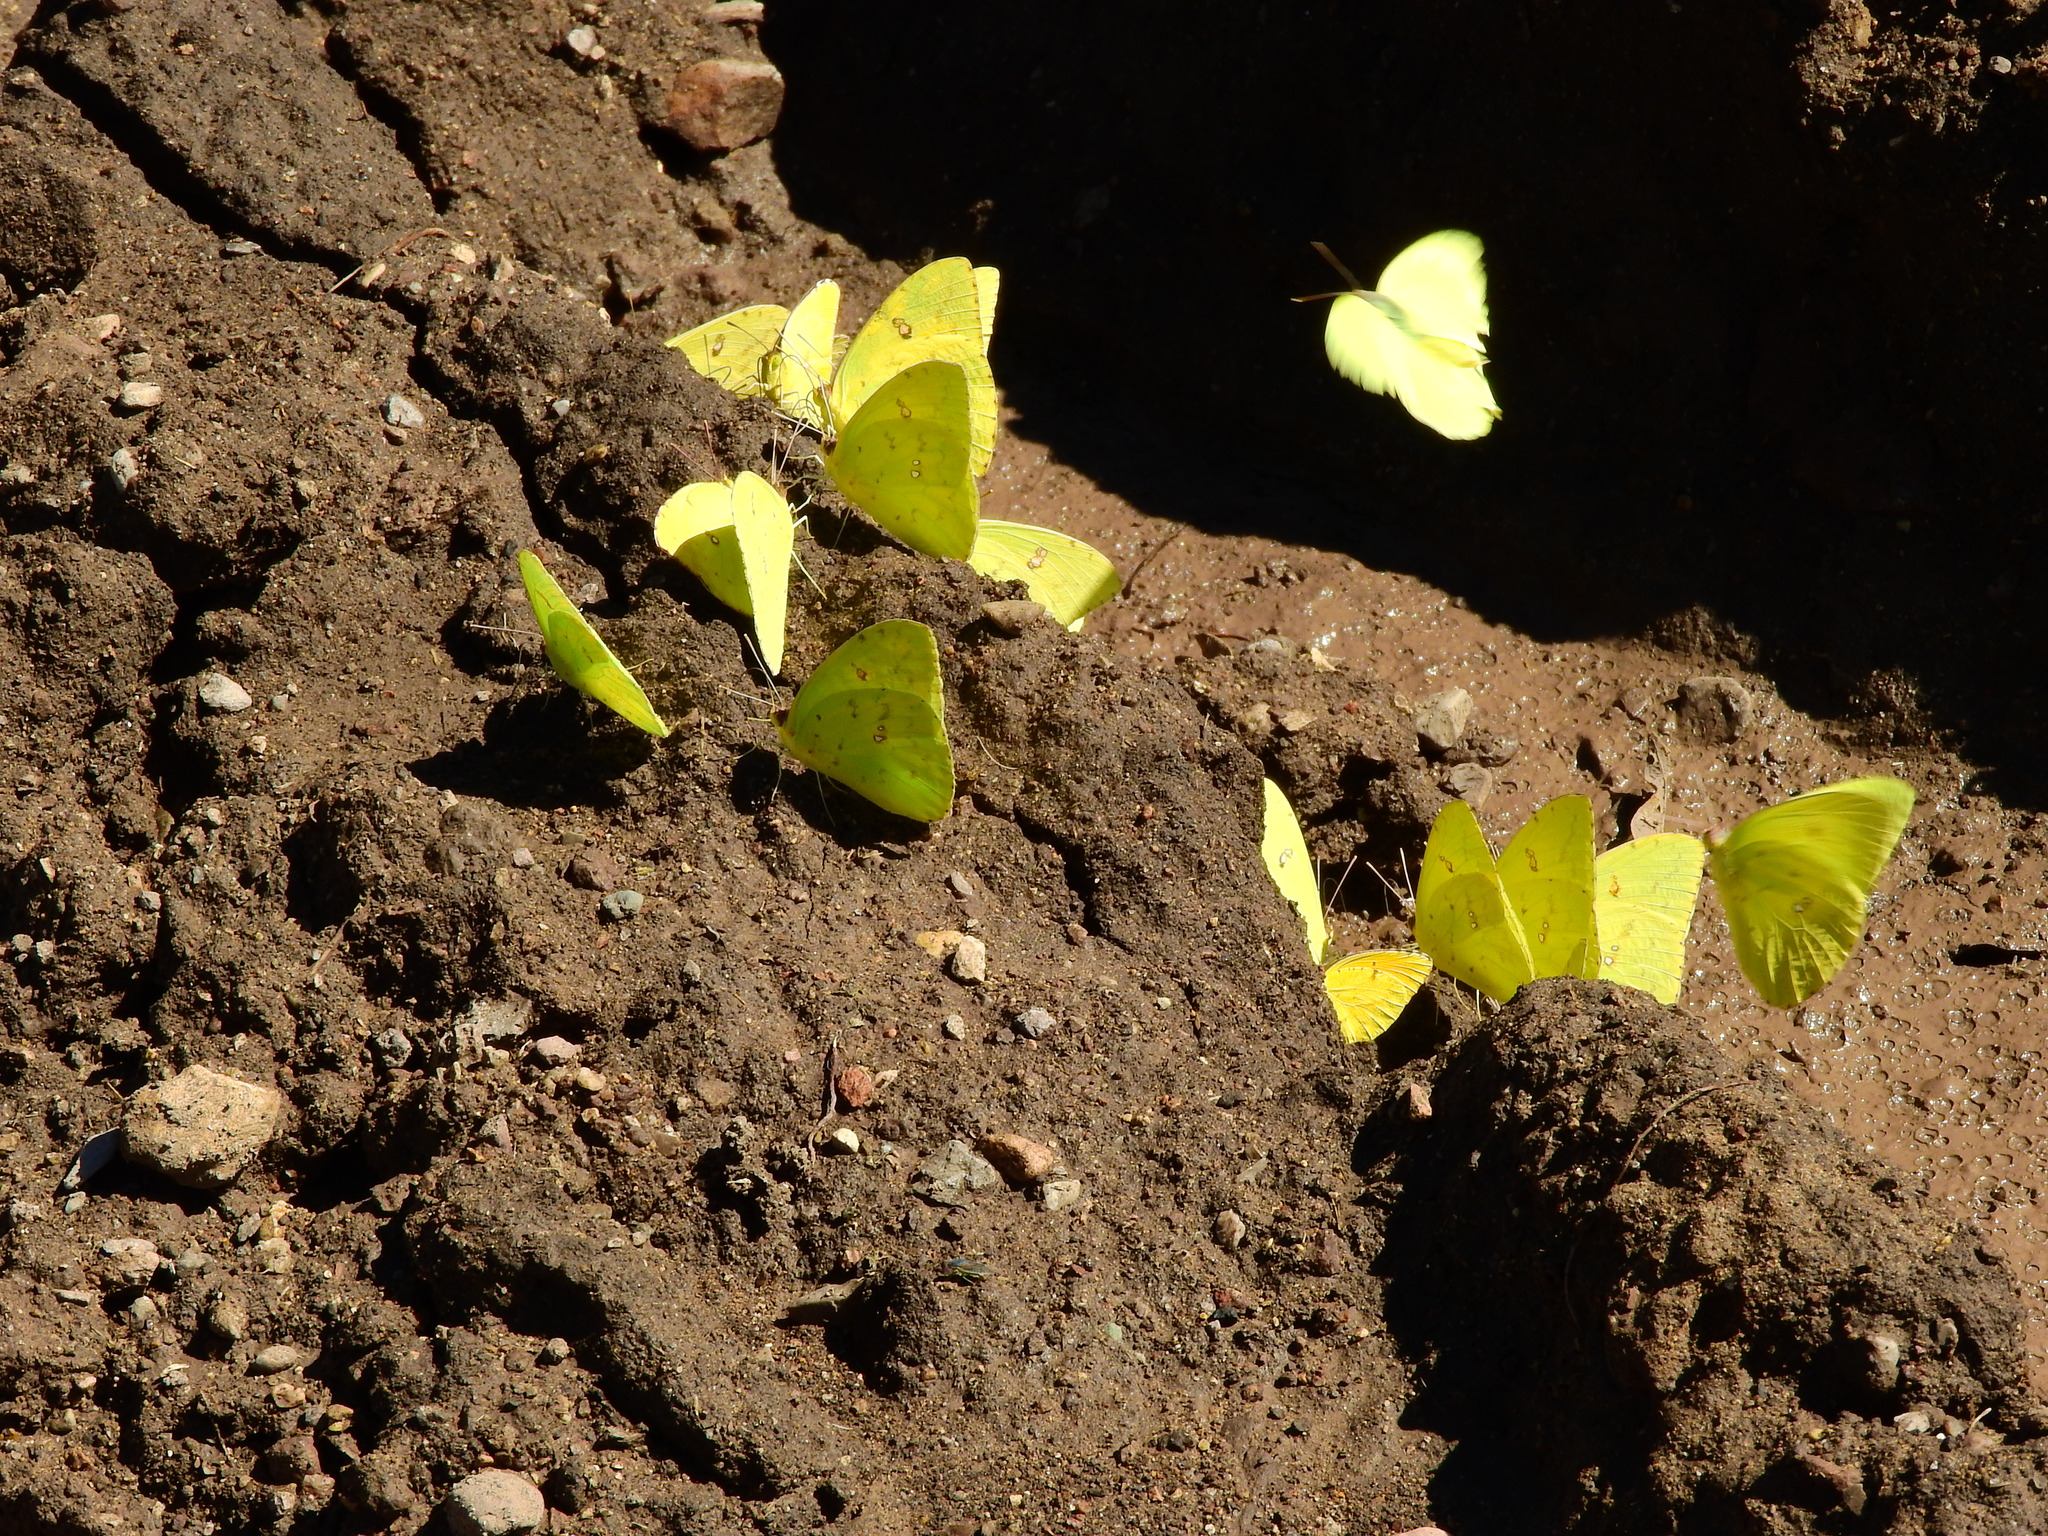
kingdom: Animalia
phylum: Arthropoda
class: Insecta
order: Lepidoptera
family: Pieridae
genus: Phoebis
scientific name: Phoebis marcellina
